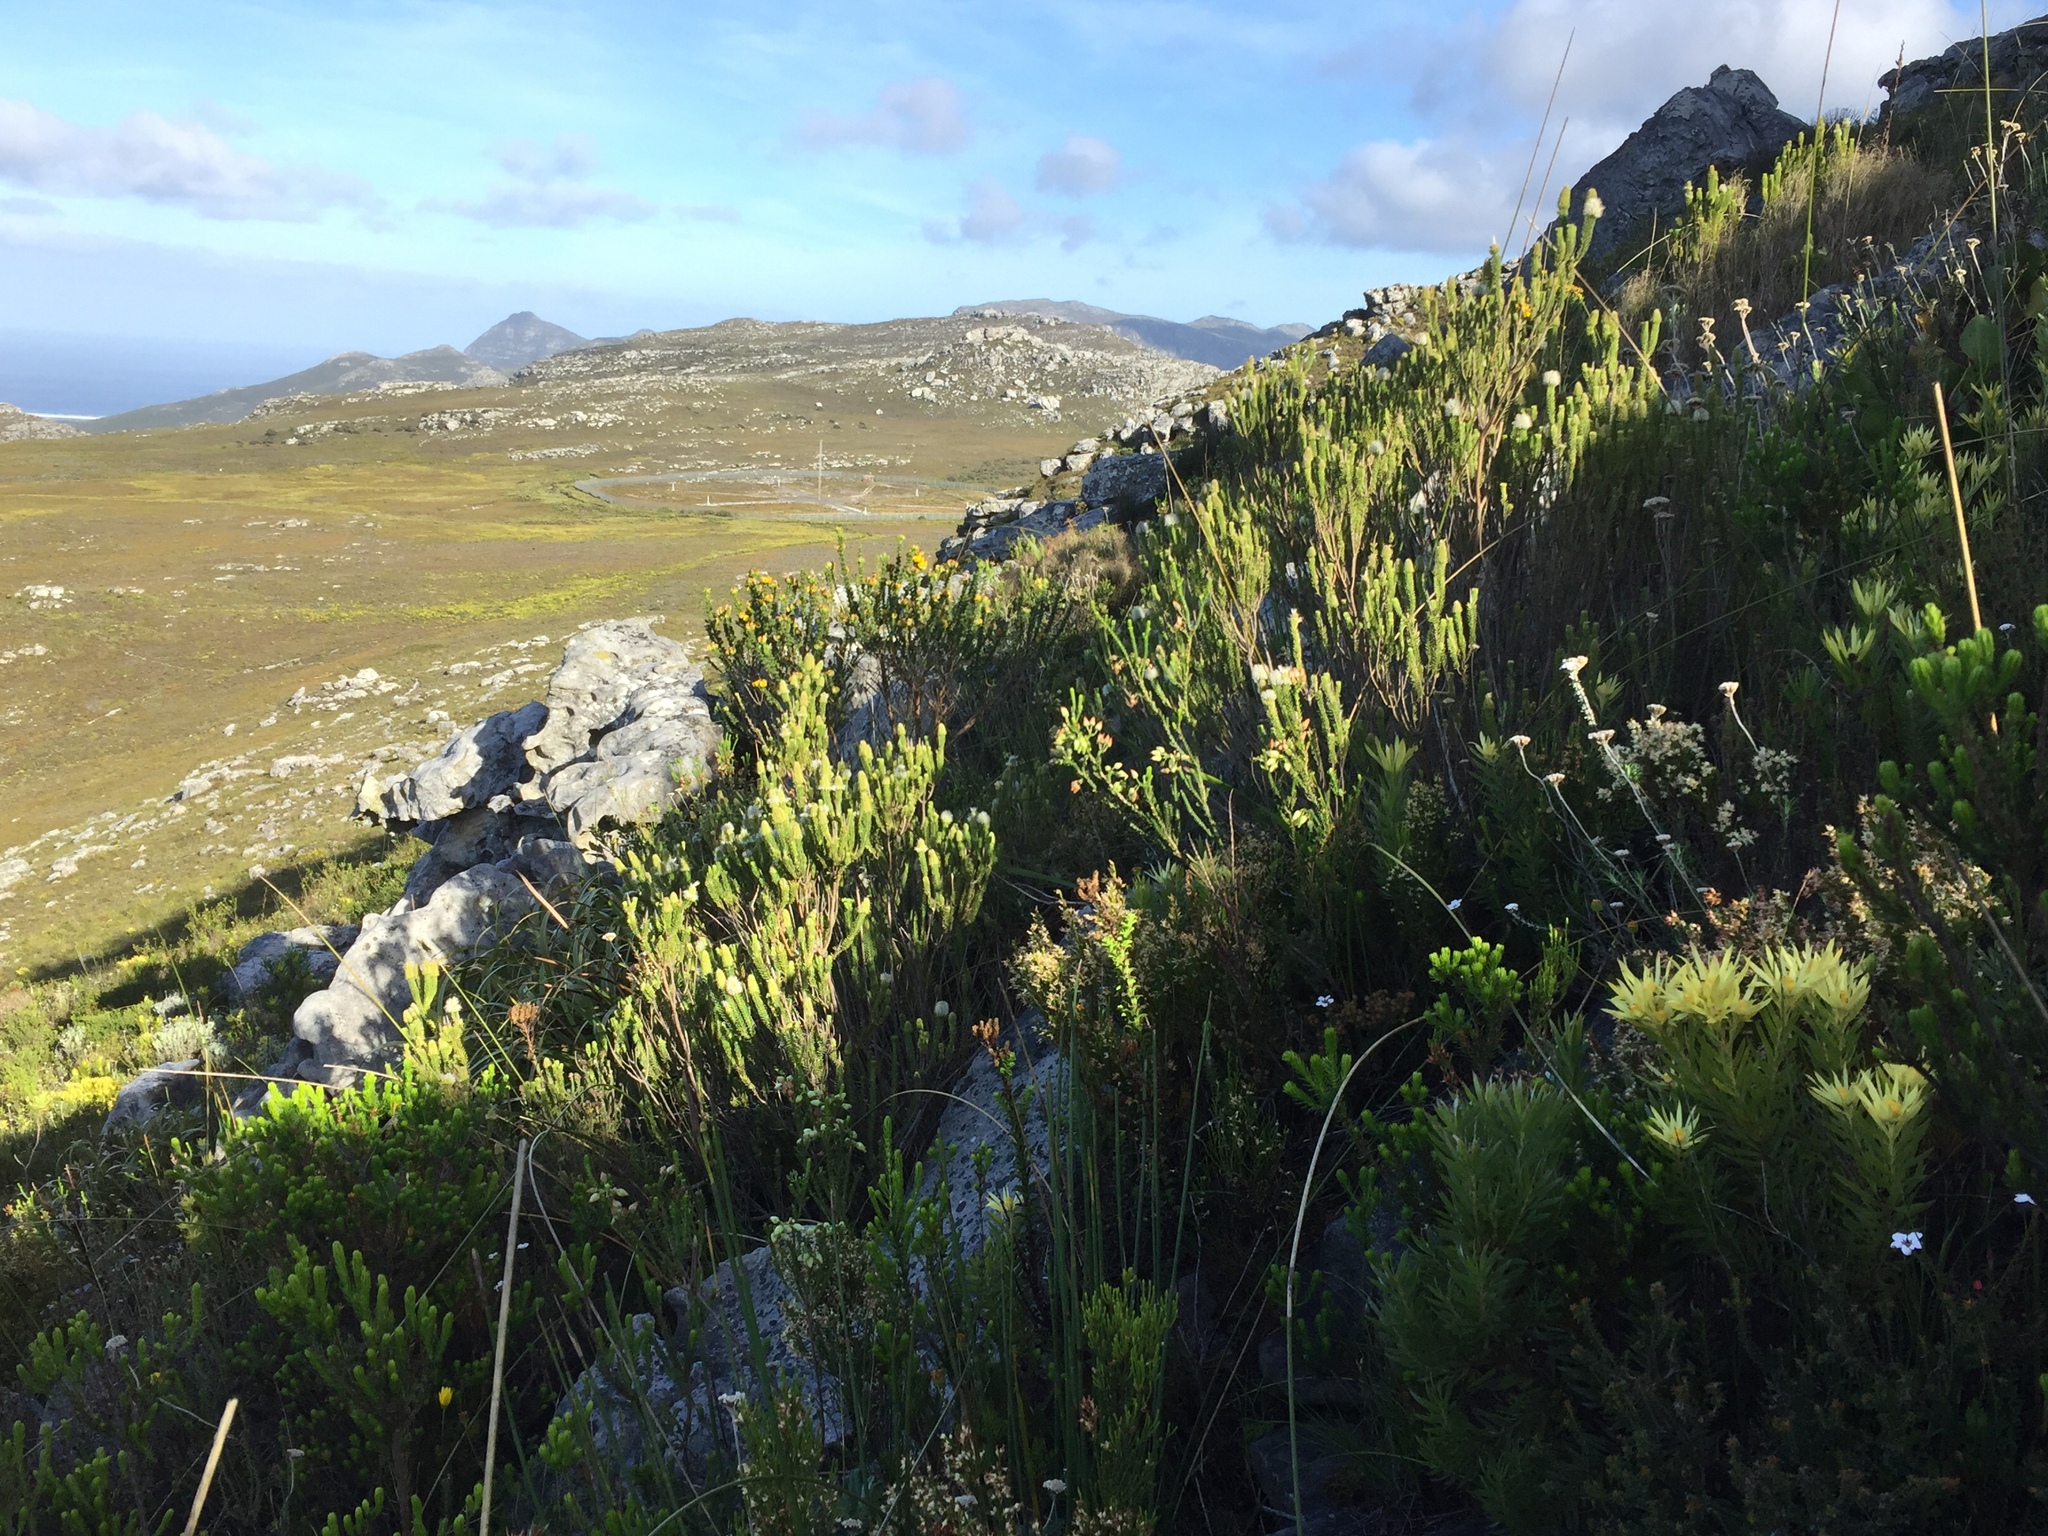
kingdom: Plantae
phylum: Tracheophyta
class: Magnoliopsida
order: Lamiales
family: Stilbaceae
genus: Stilbe
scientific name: Stilbe vestita
